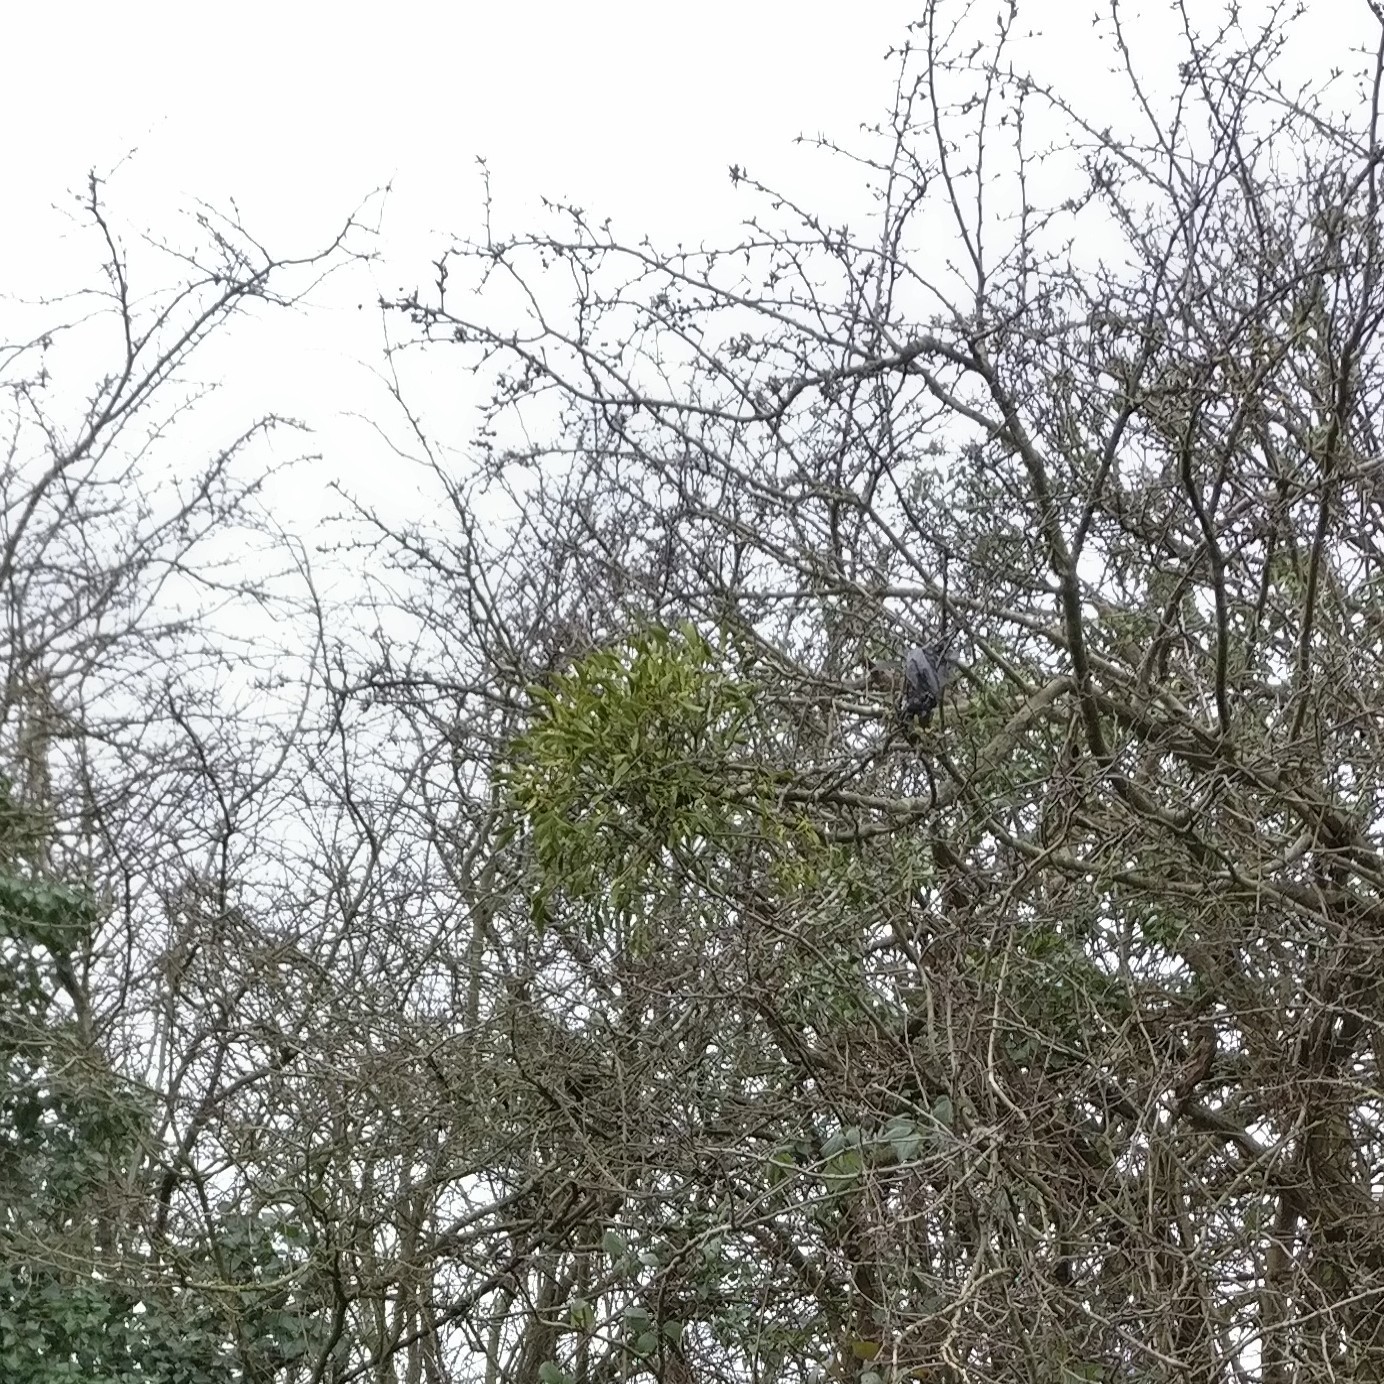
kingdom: Plantae
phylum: Tracheophyta
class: Magnoliopsida
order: Santalales
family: Viscaceae
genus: Viscum
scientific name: Viscum album
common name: Mistletoe
